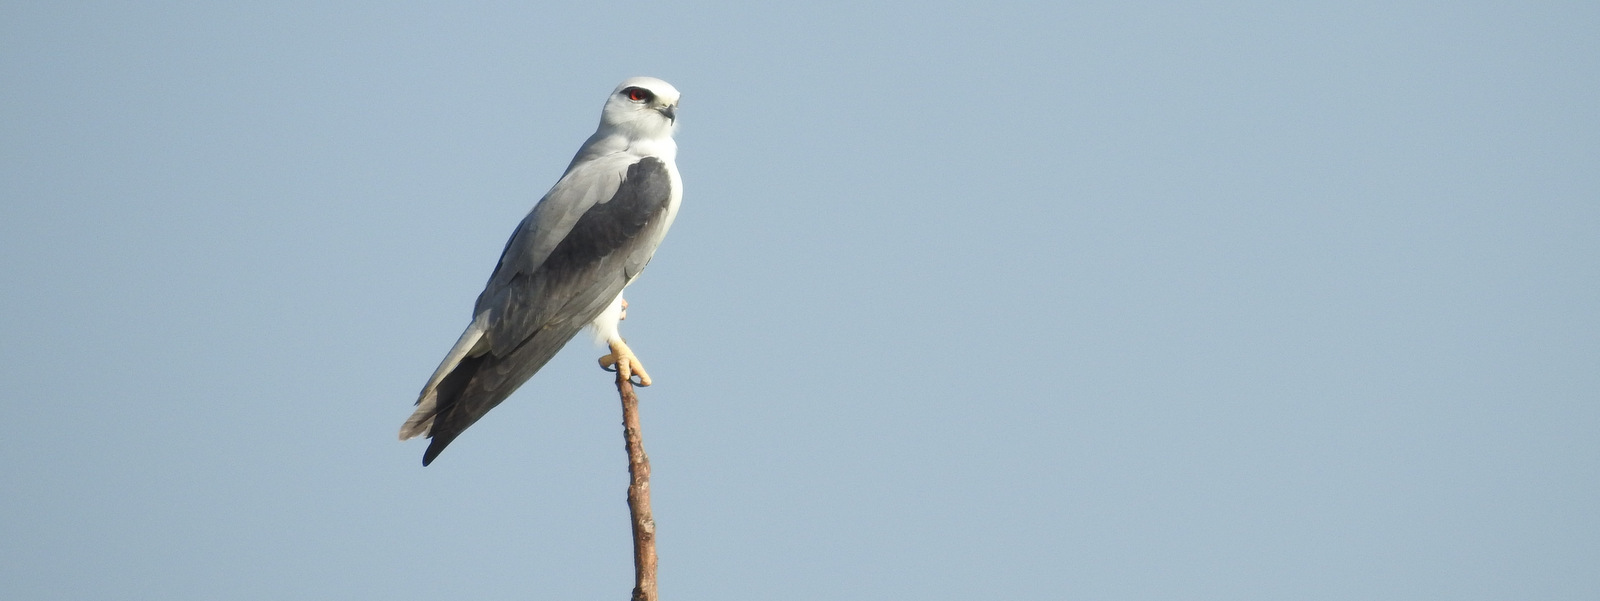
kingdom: Animalia
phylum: Chordata
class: Aves
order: Accipitriformes
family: Accipitridae
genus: Elanus
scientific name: Elanus caeruleus
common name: Black-winged kite
